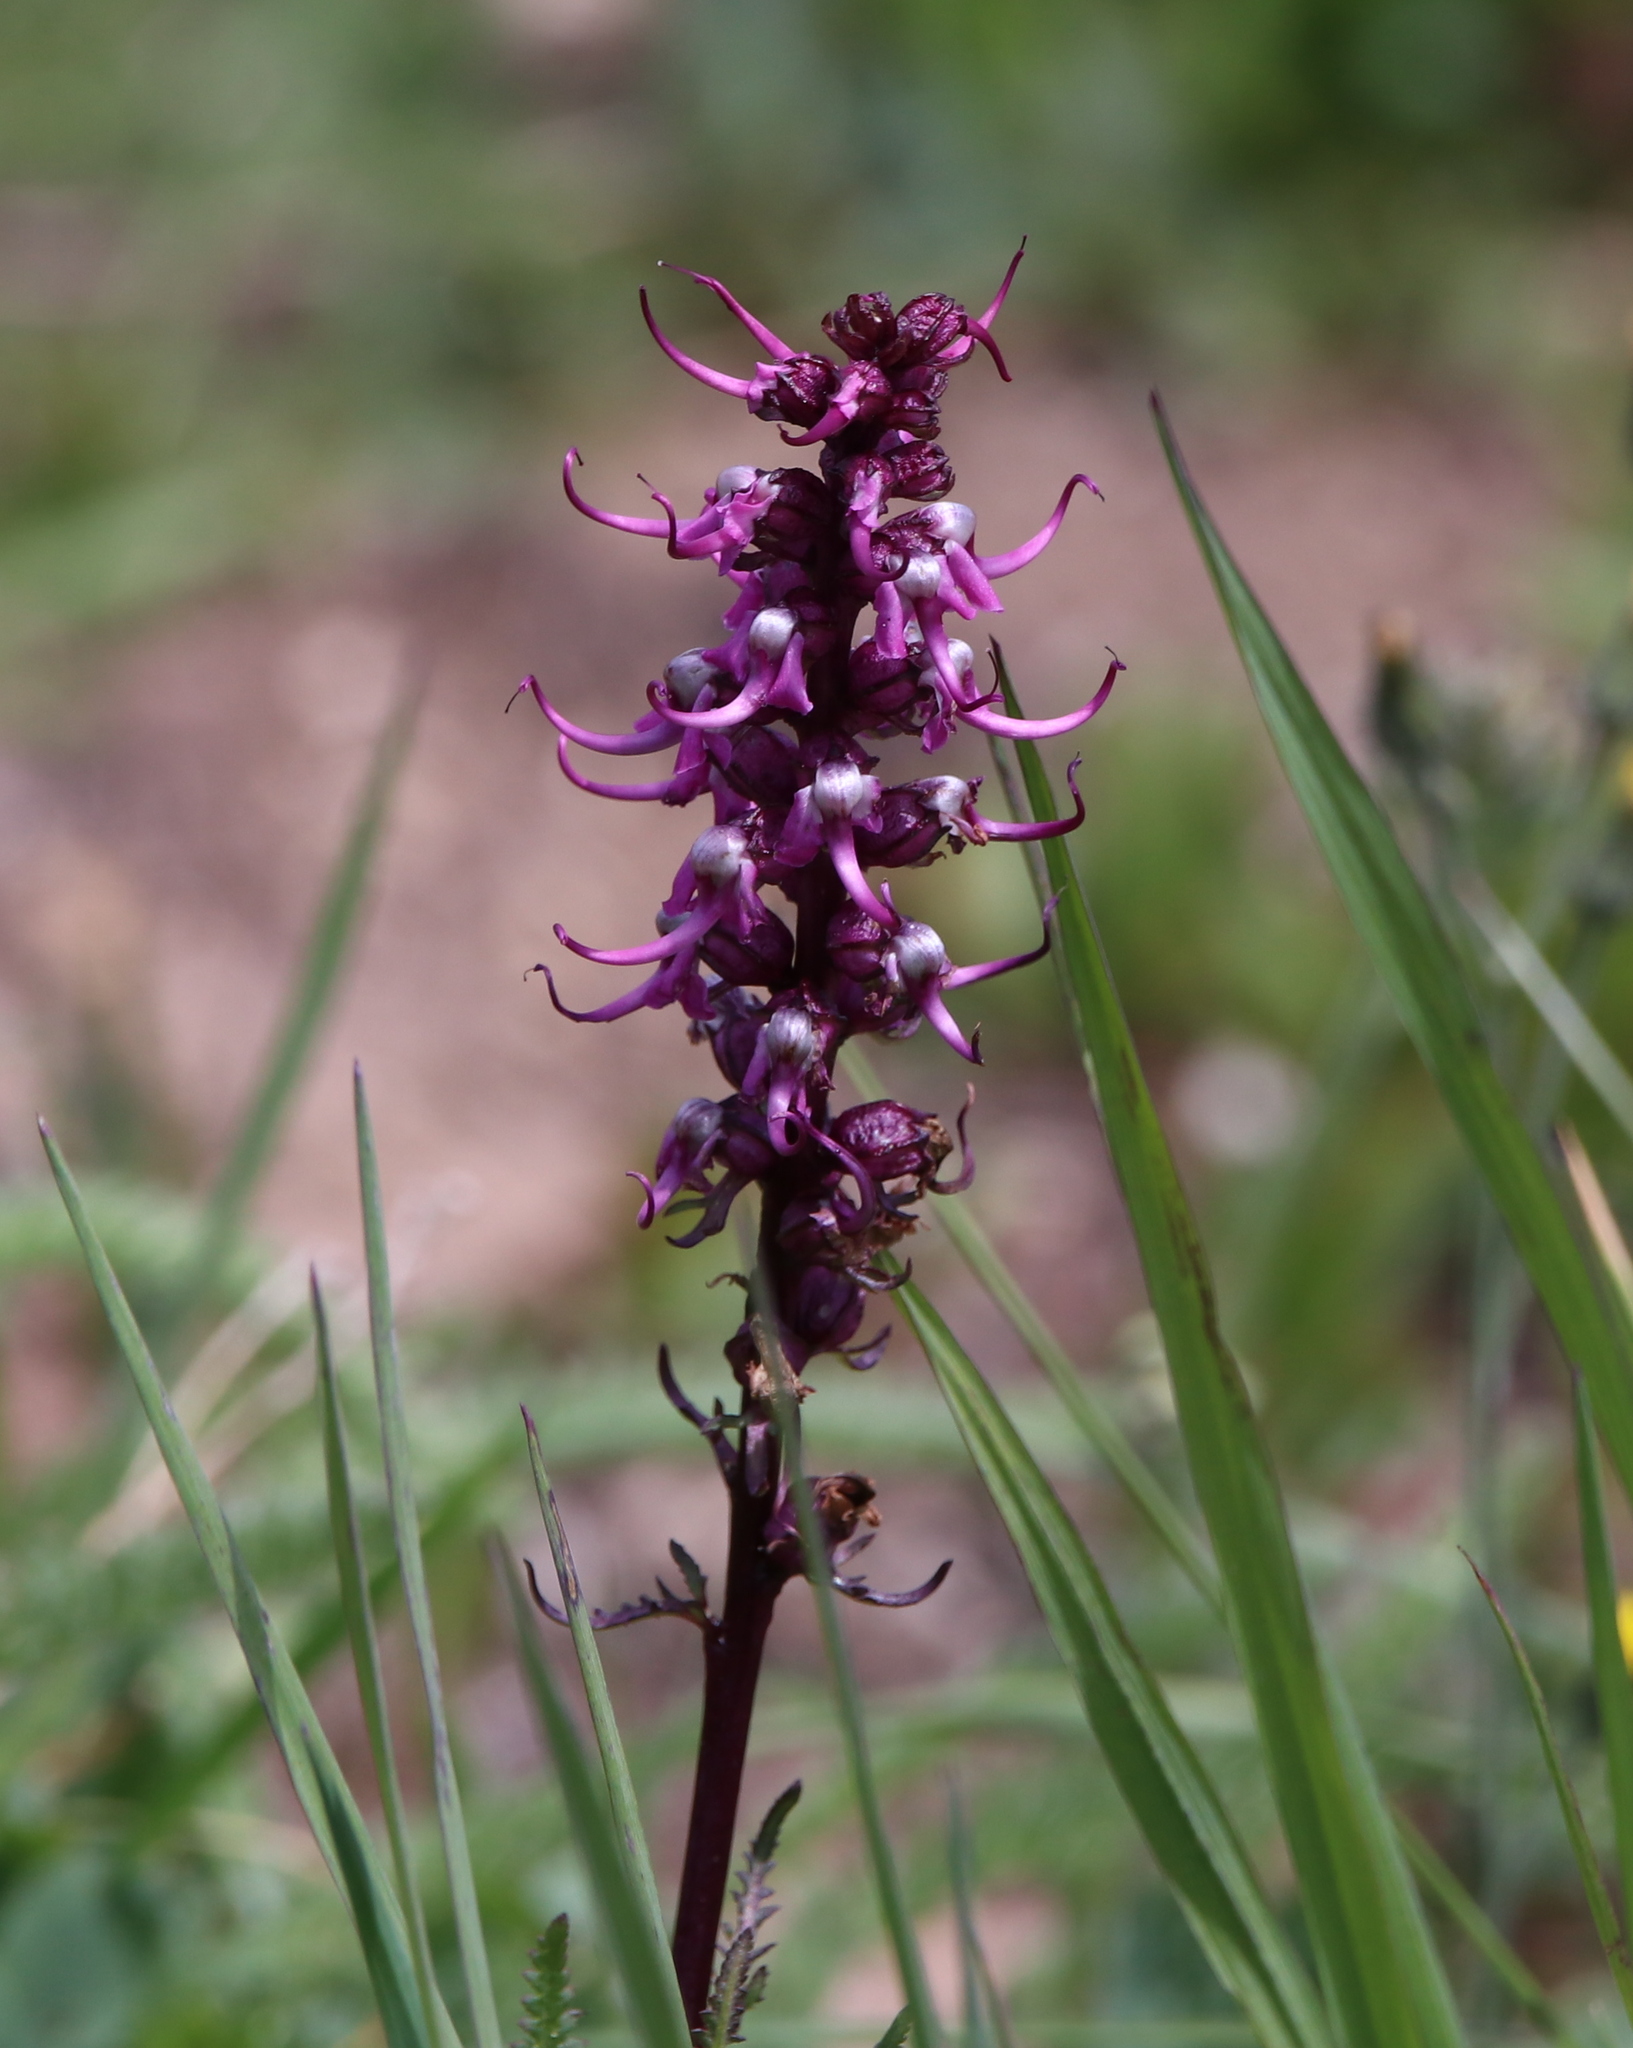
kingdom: Plantae
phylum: Tracheophyta
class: Magnoliopsida
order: Lamiales
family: Orobanchaceae
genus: Pedicularis
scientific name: Pedicularis groenlandica
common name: Elephant's-head
